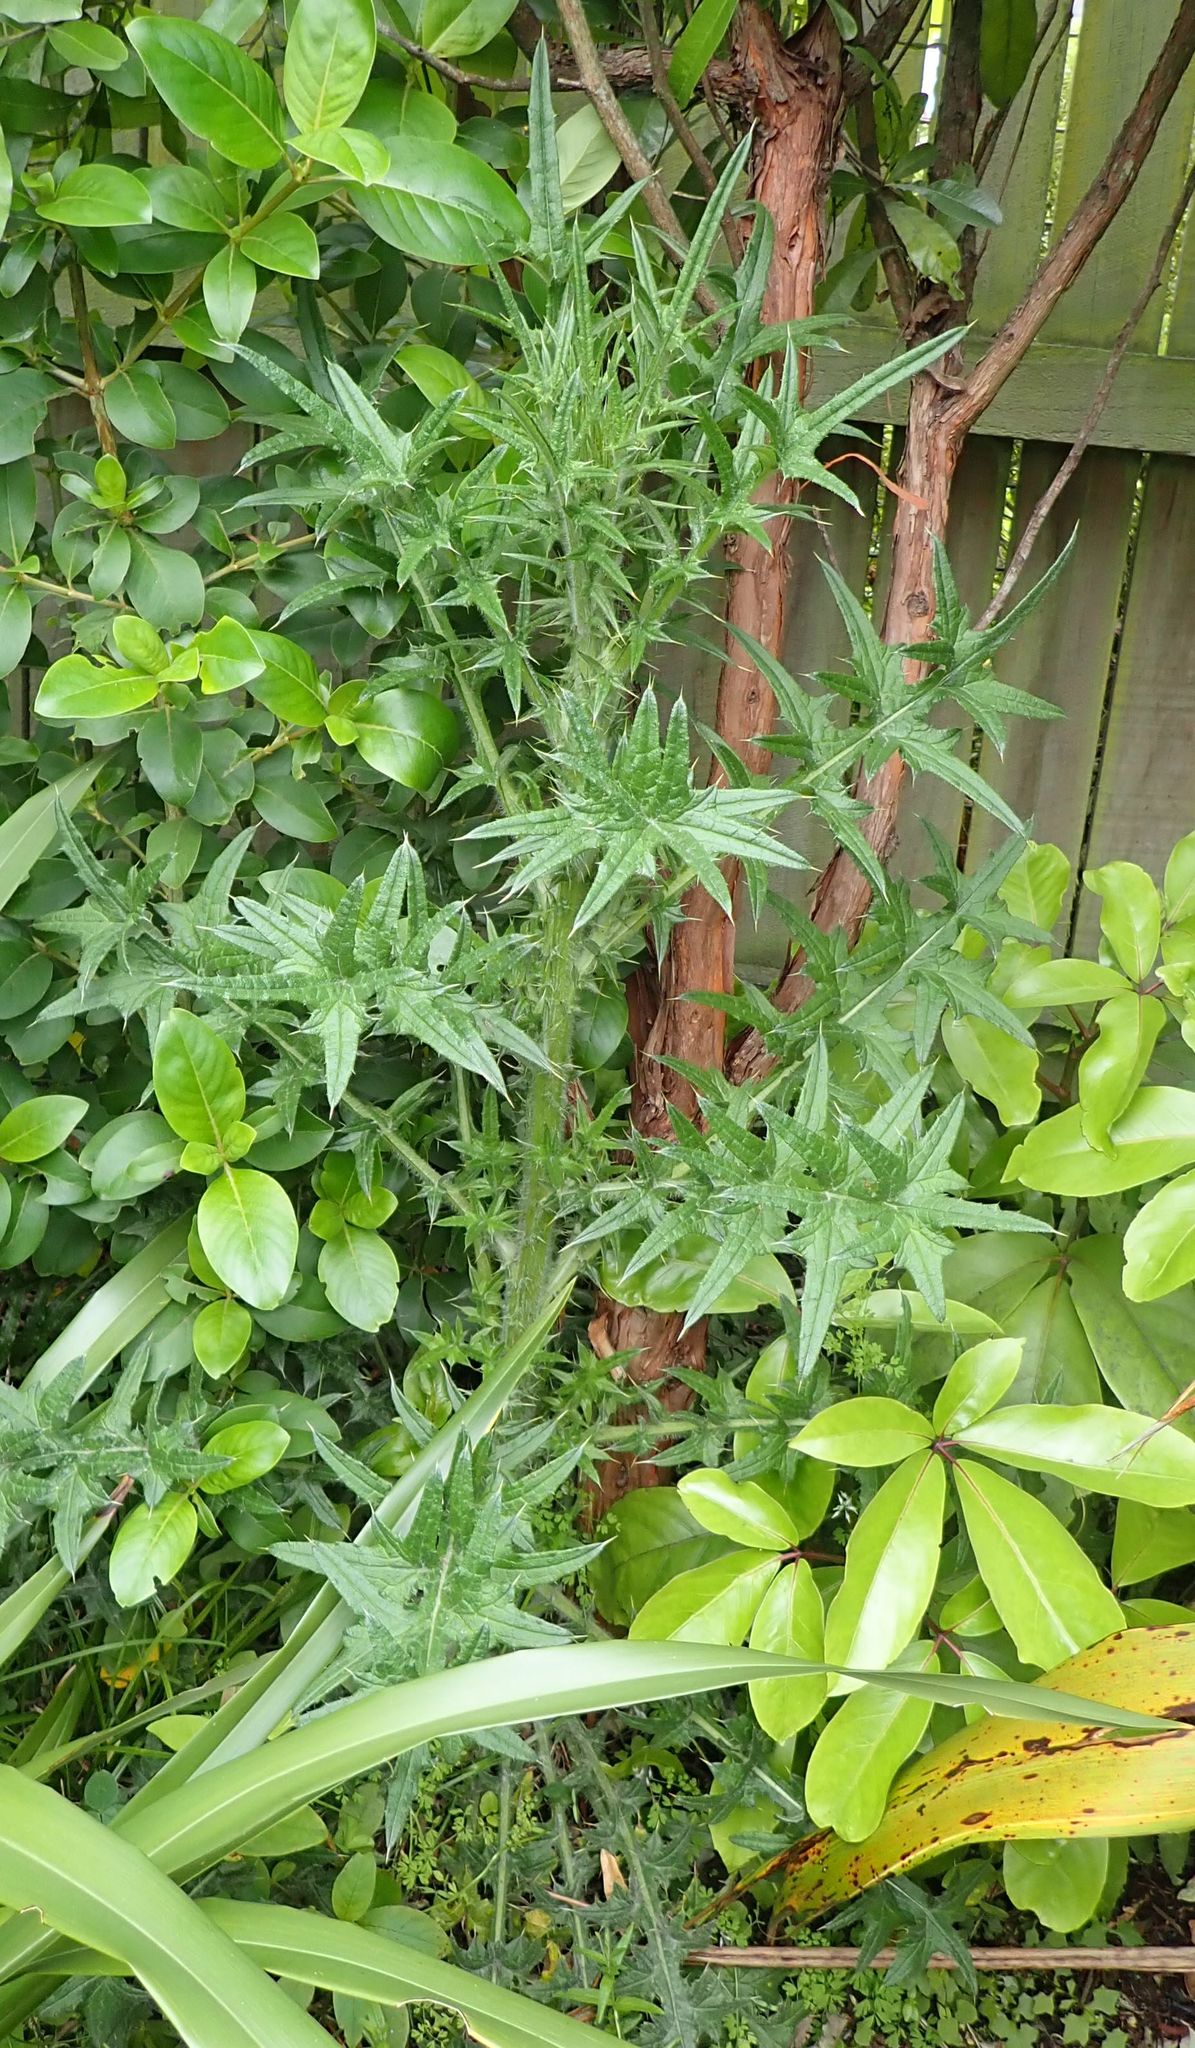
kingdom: Plantae
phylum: Tracheophyta
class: Magnoliopsida
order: Asterales
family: Asteraceae
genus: Cirsium
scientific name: Cirsium vulgare
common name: Bull thistle
